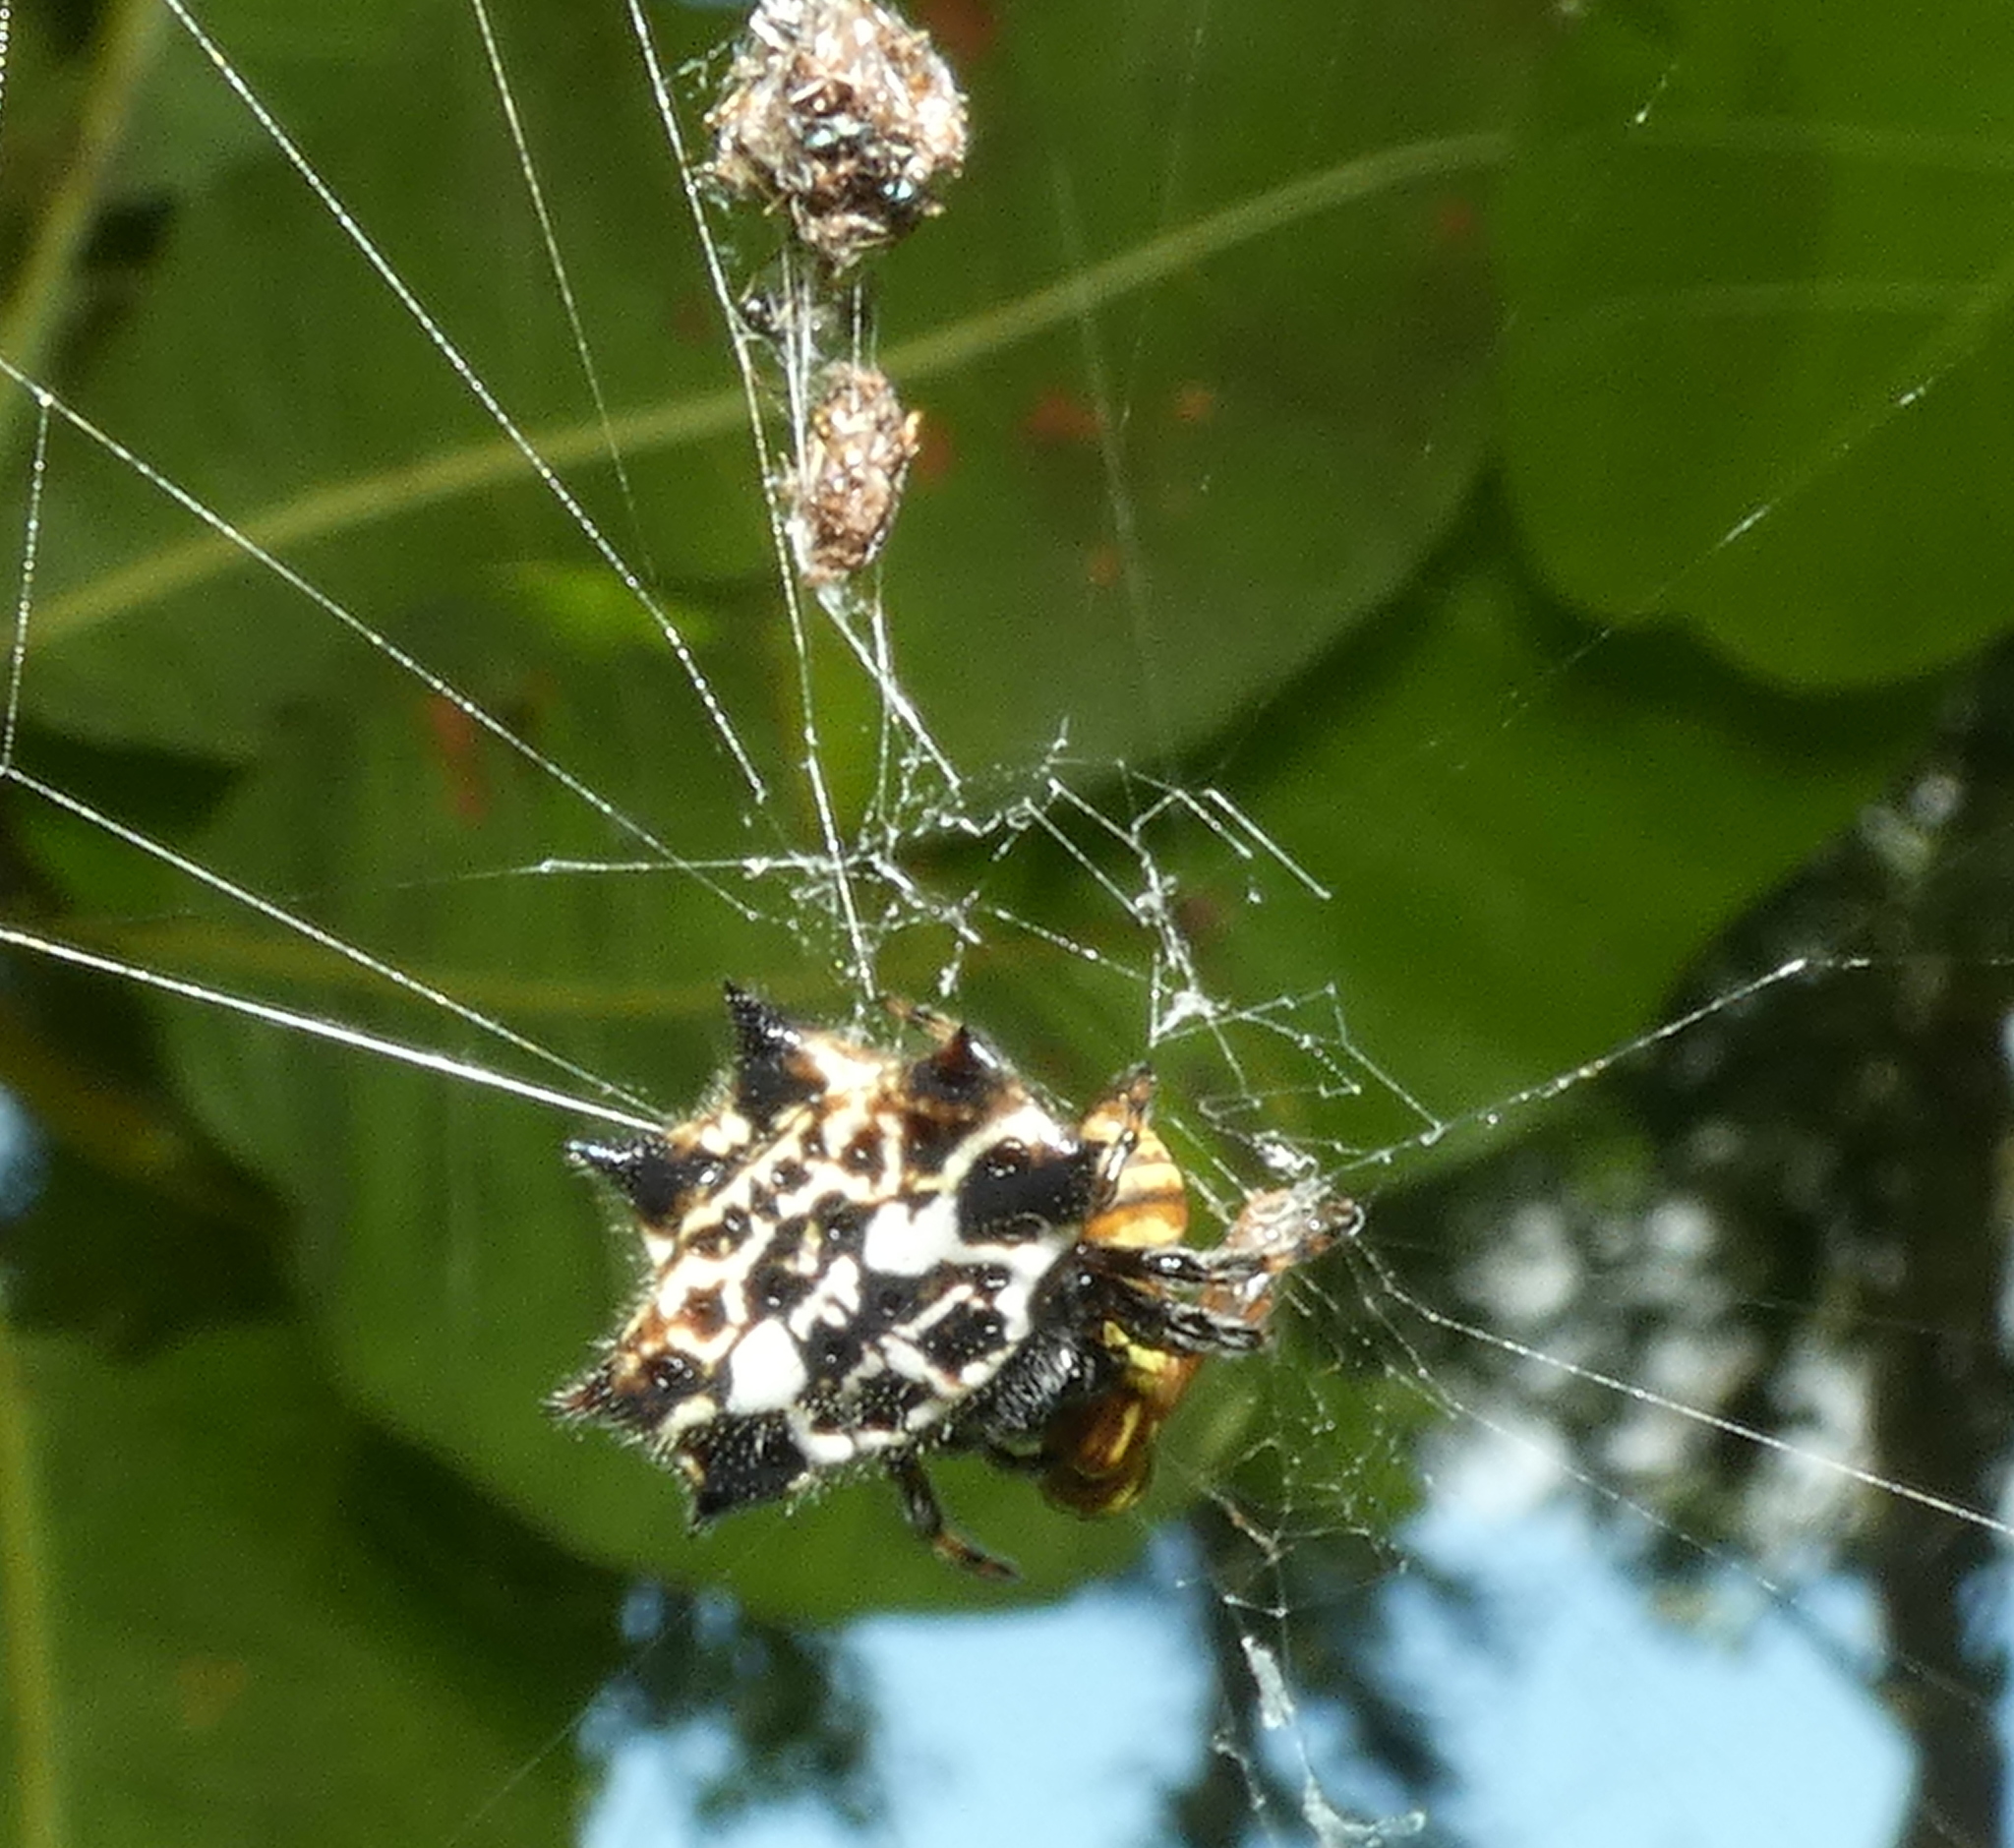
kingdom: Animalia
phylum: Arthropoda
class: Arachnida
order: Araneae
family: Araneidae
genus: Gasteracantha
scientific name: Gasteracantha cancriformis
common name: Orb weavers
